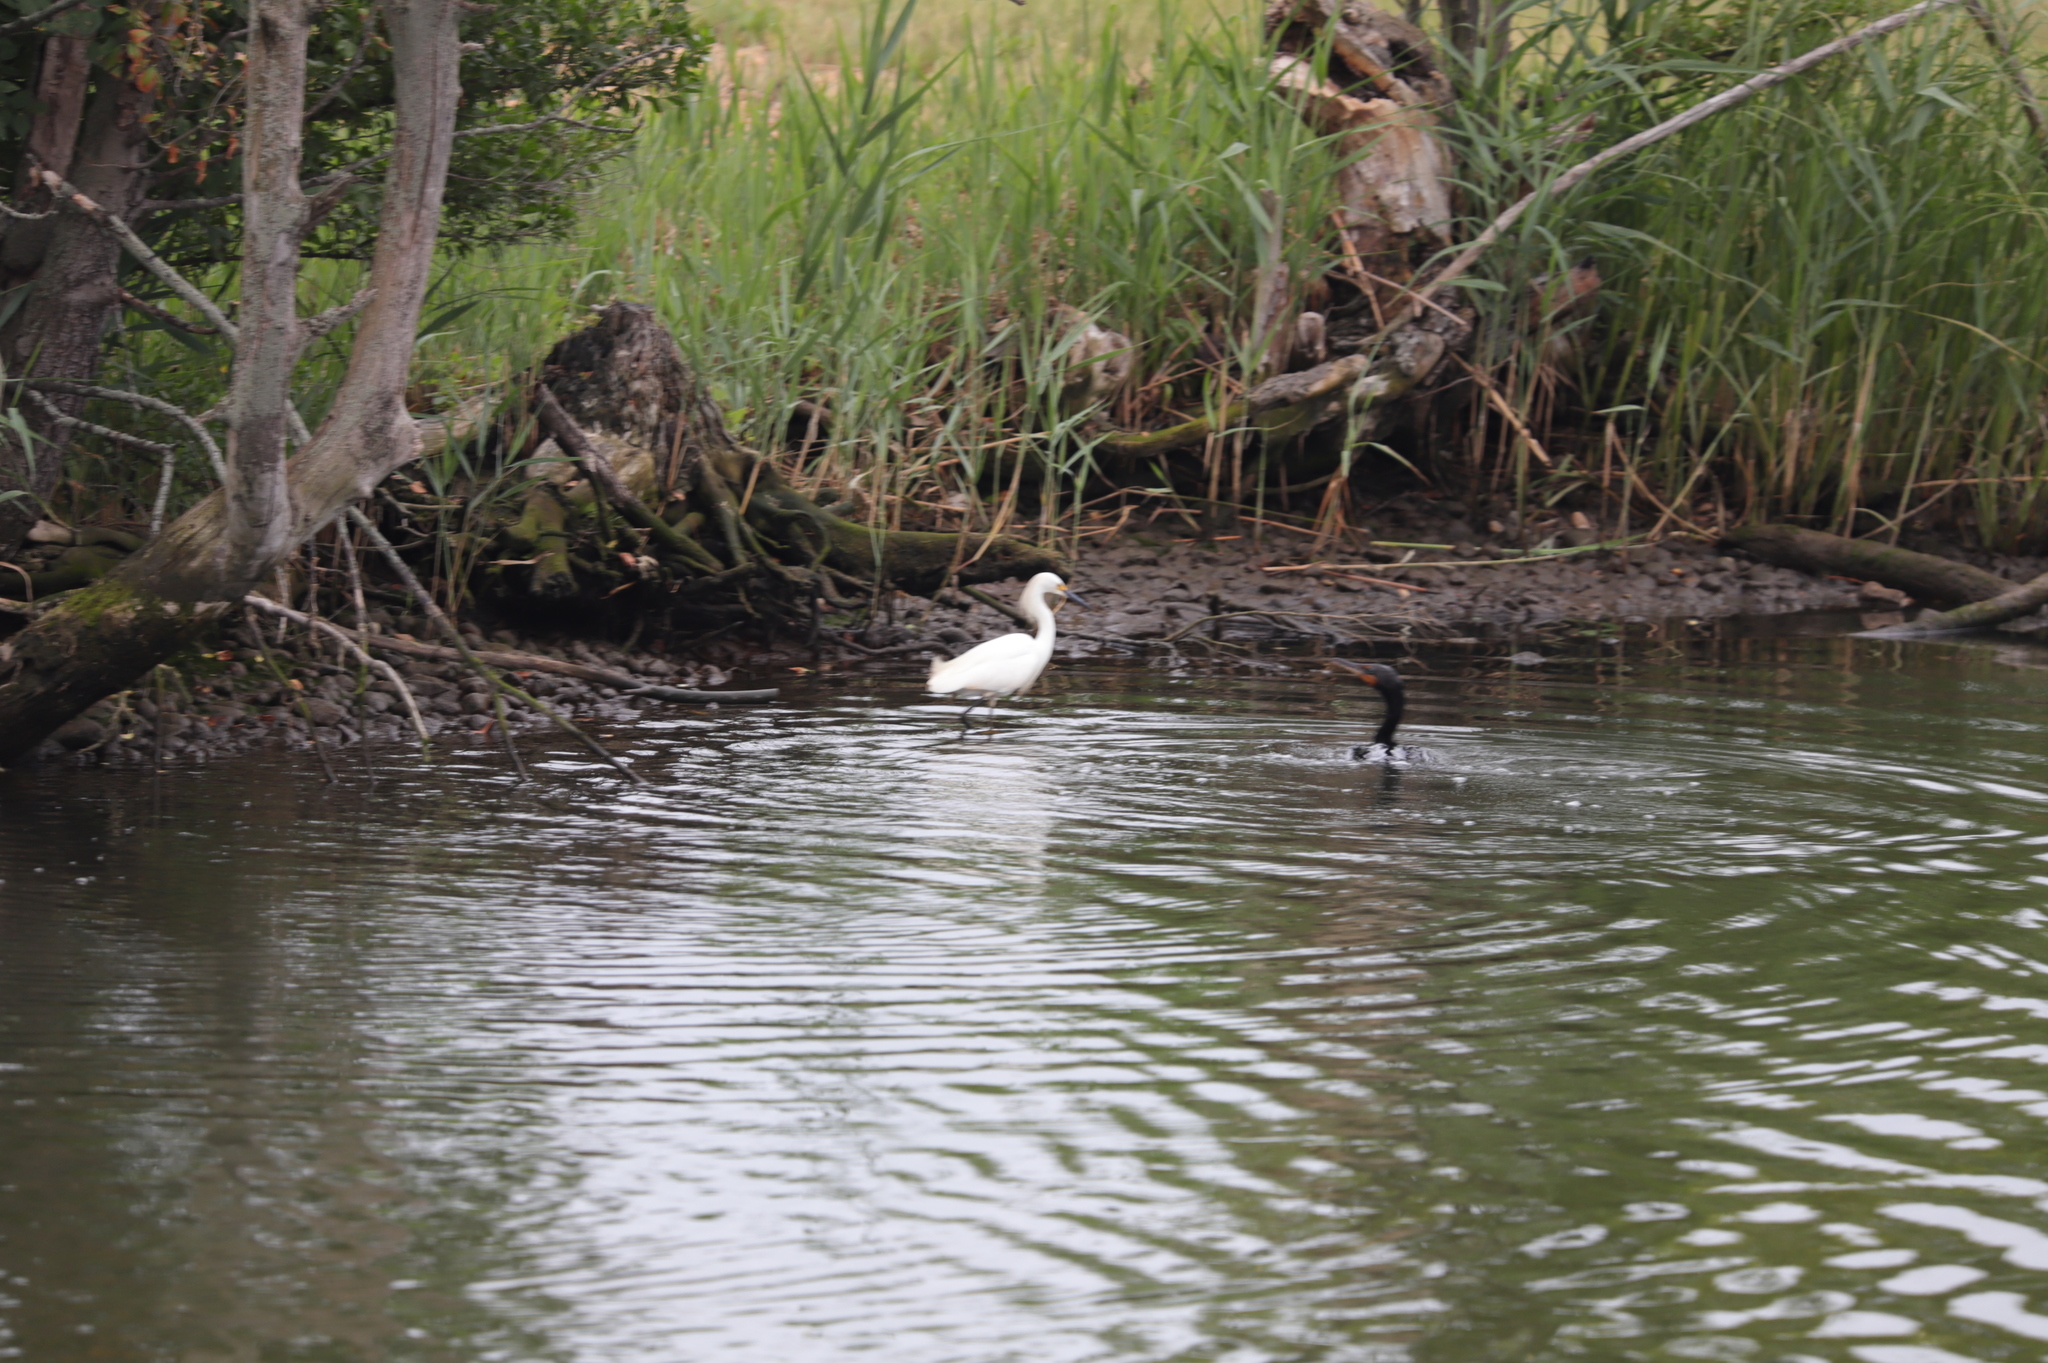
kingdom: Animalia
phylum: Chordata
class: Aves
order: Suliformes
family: Phalacrocoracidae
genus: Phalacrocorax
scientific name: Phalacrocorax auritus
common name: Double-crested cormorant
